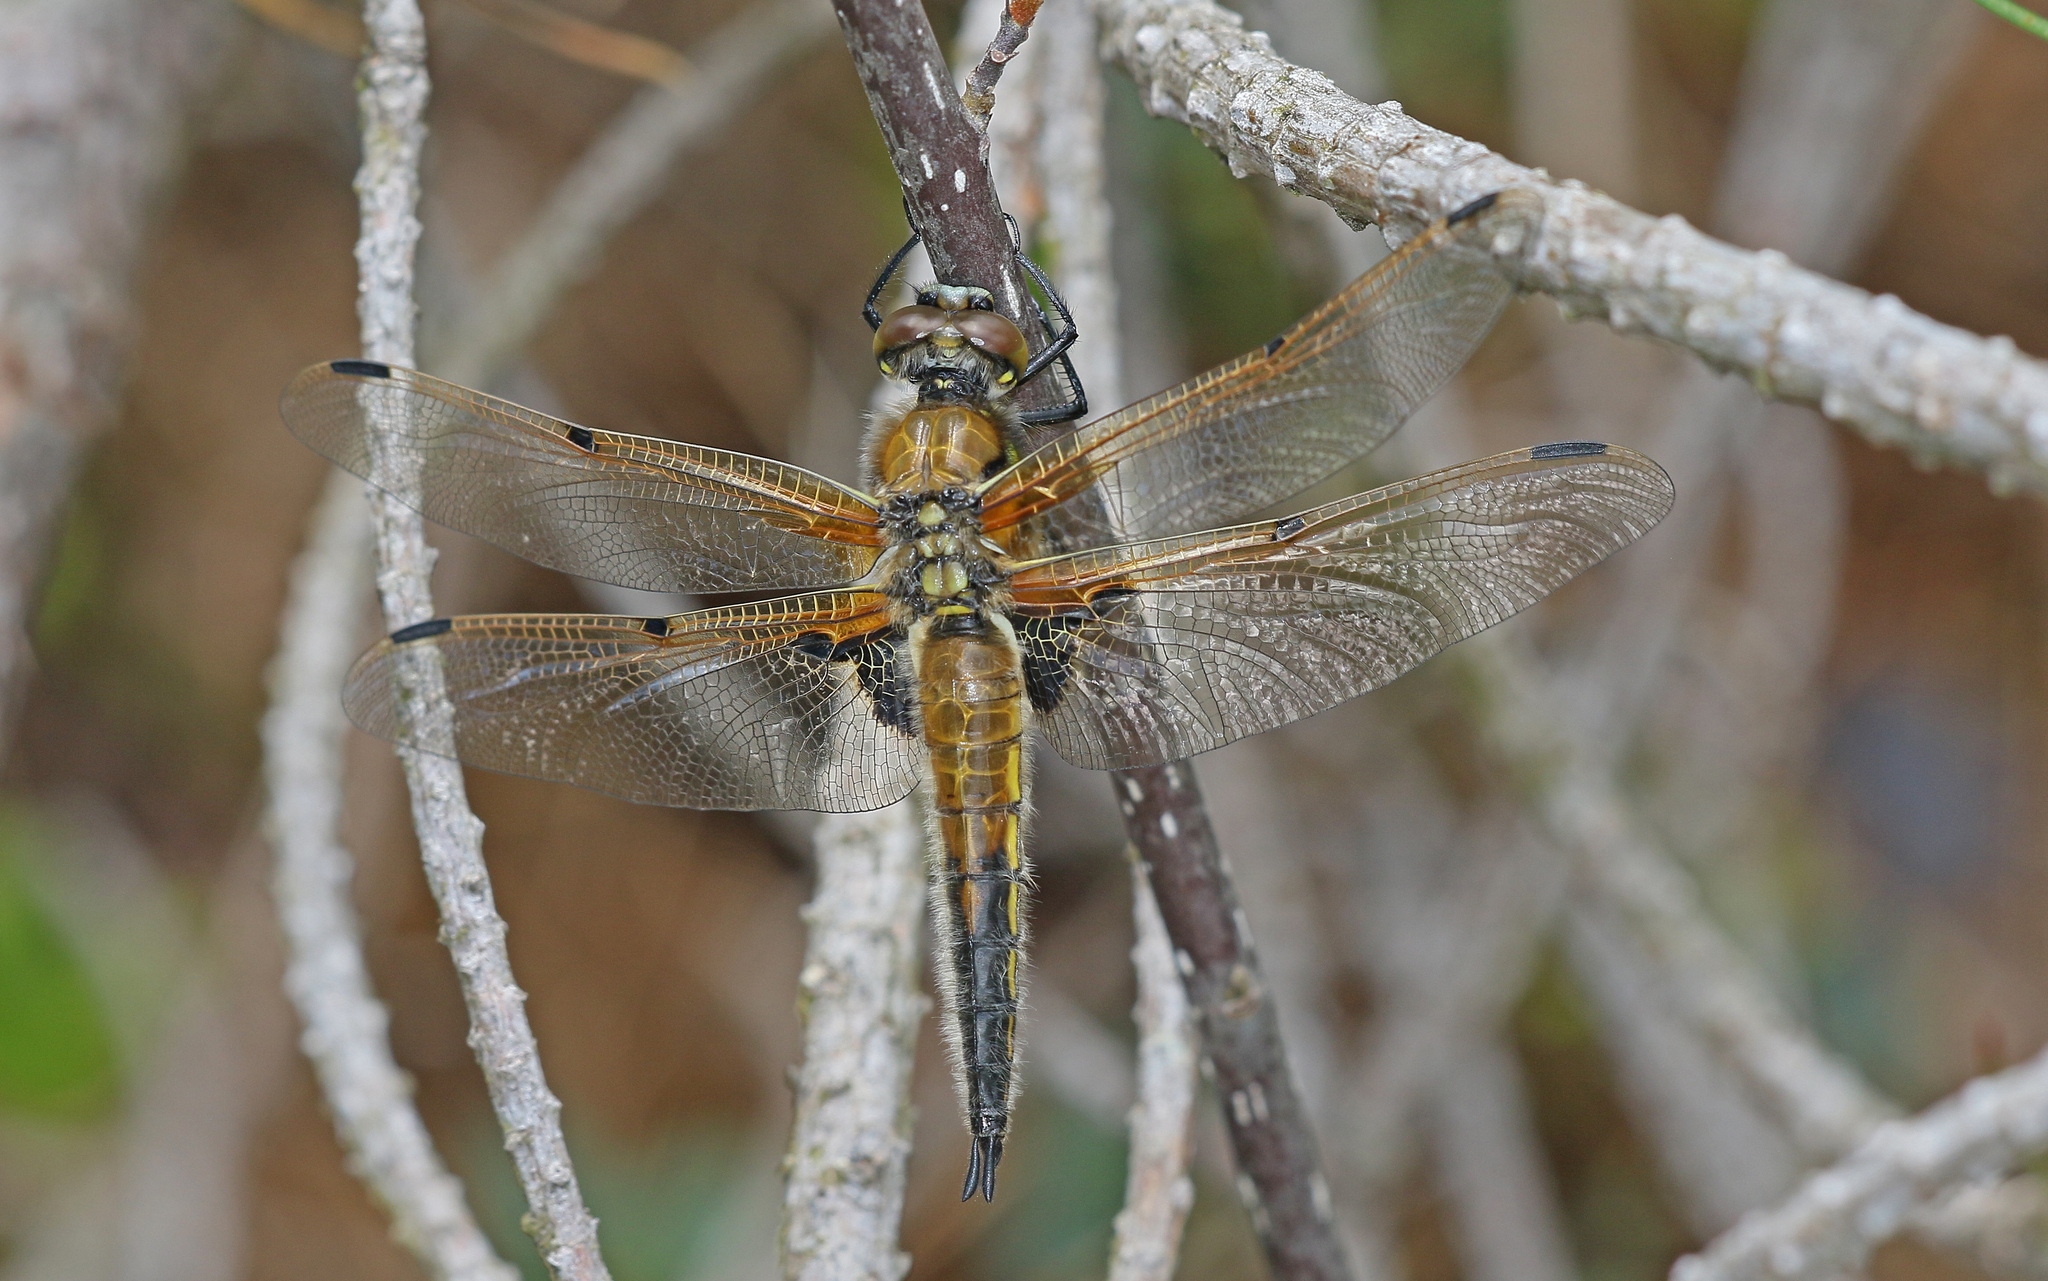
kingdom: Animalia
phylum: Arthropoda
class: Insecta
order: Odonata
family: Libellulidae
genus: Libellula
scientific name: Libellula quadrimaculata
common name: Four-spotted chaser
